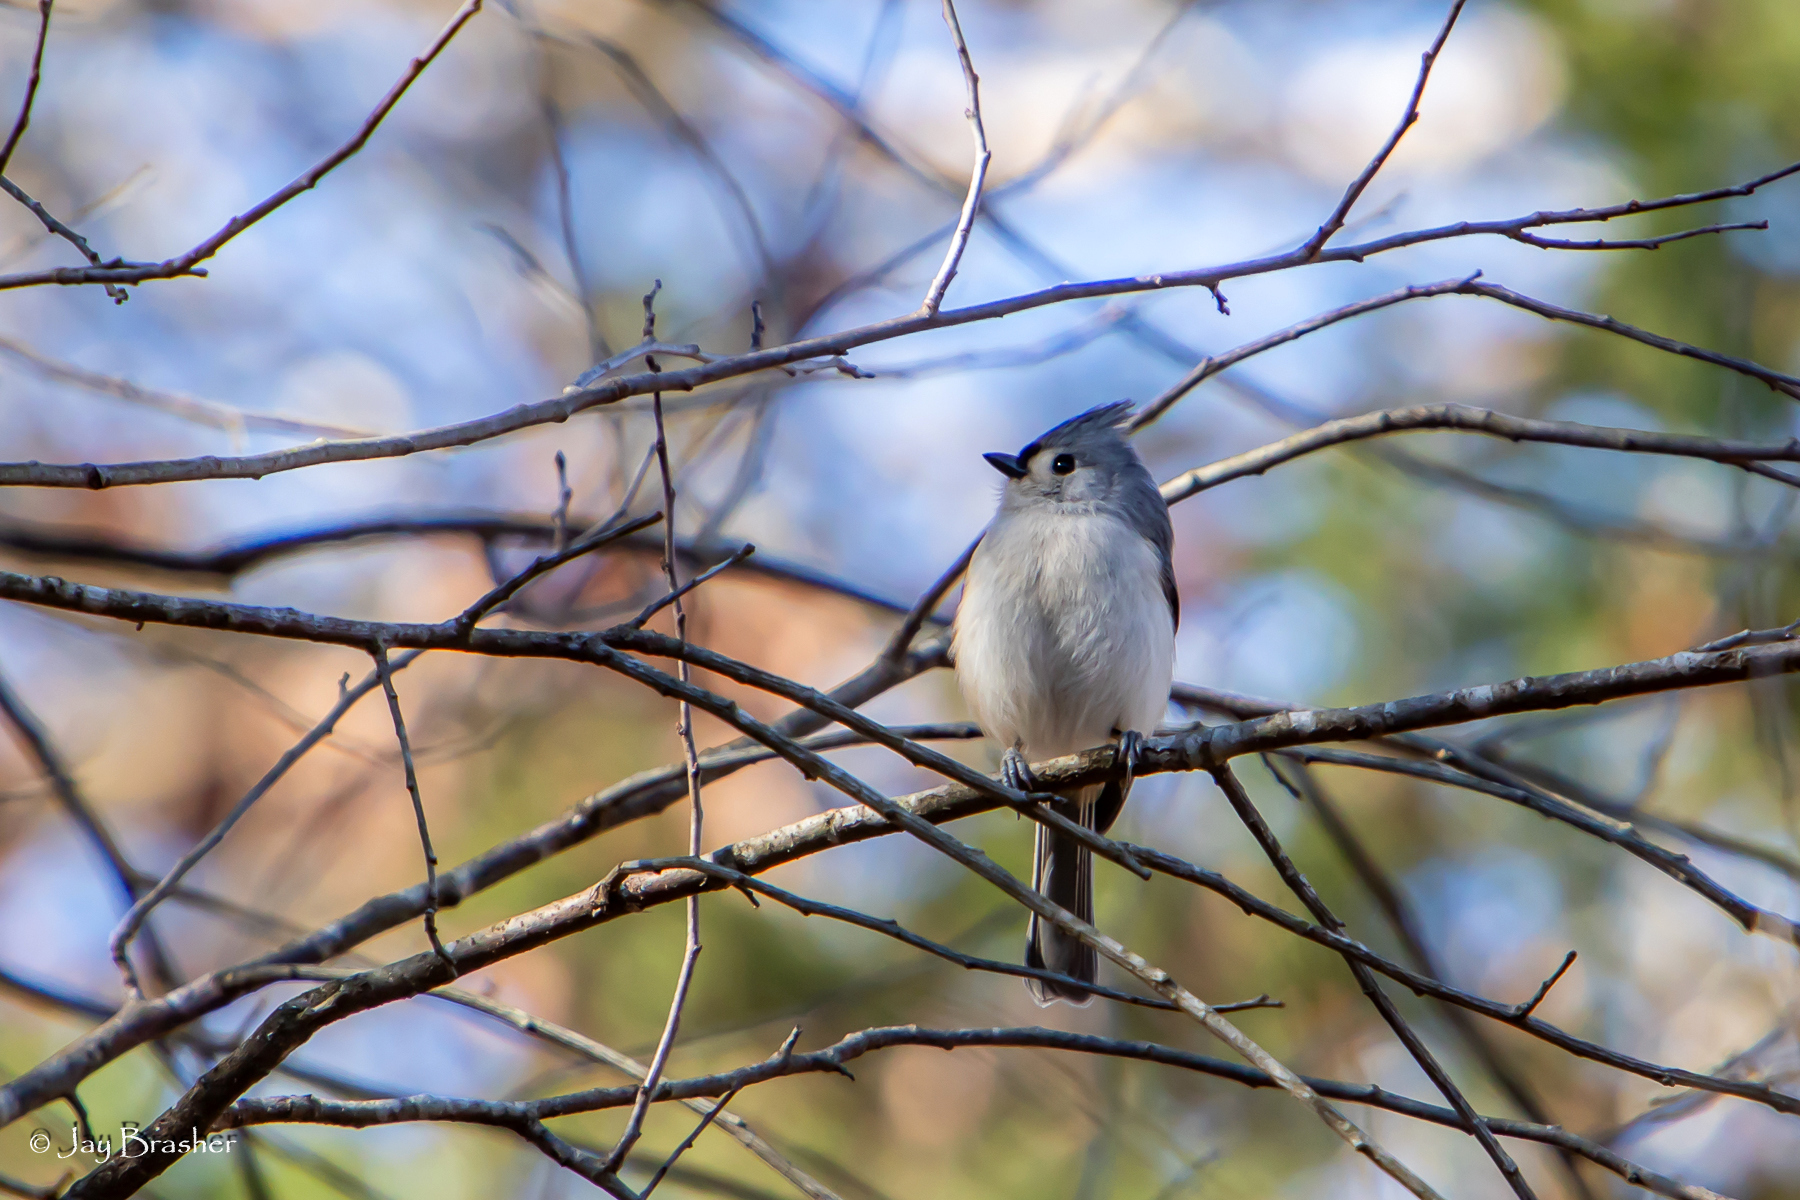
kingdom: Animalia
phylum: Chordata
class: Aves
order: Passeriformes
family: Paridae
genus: Baeolophus
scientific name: Baeolophus bicolor
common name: Tufted titmouse
